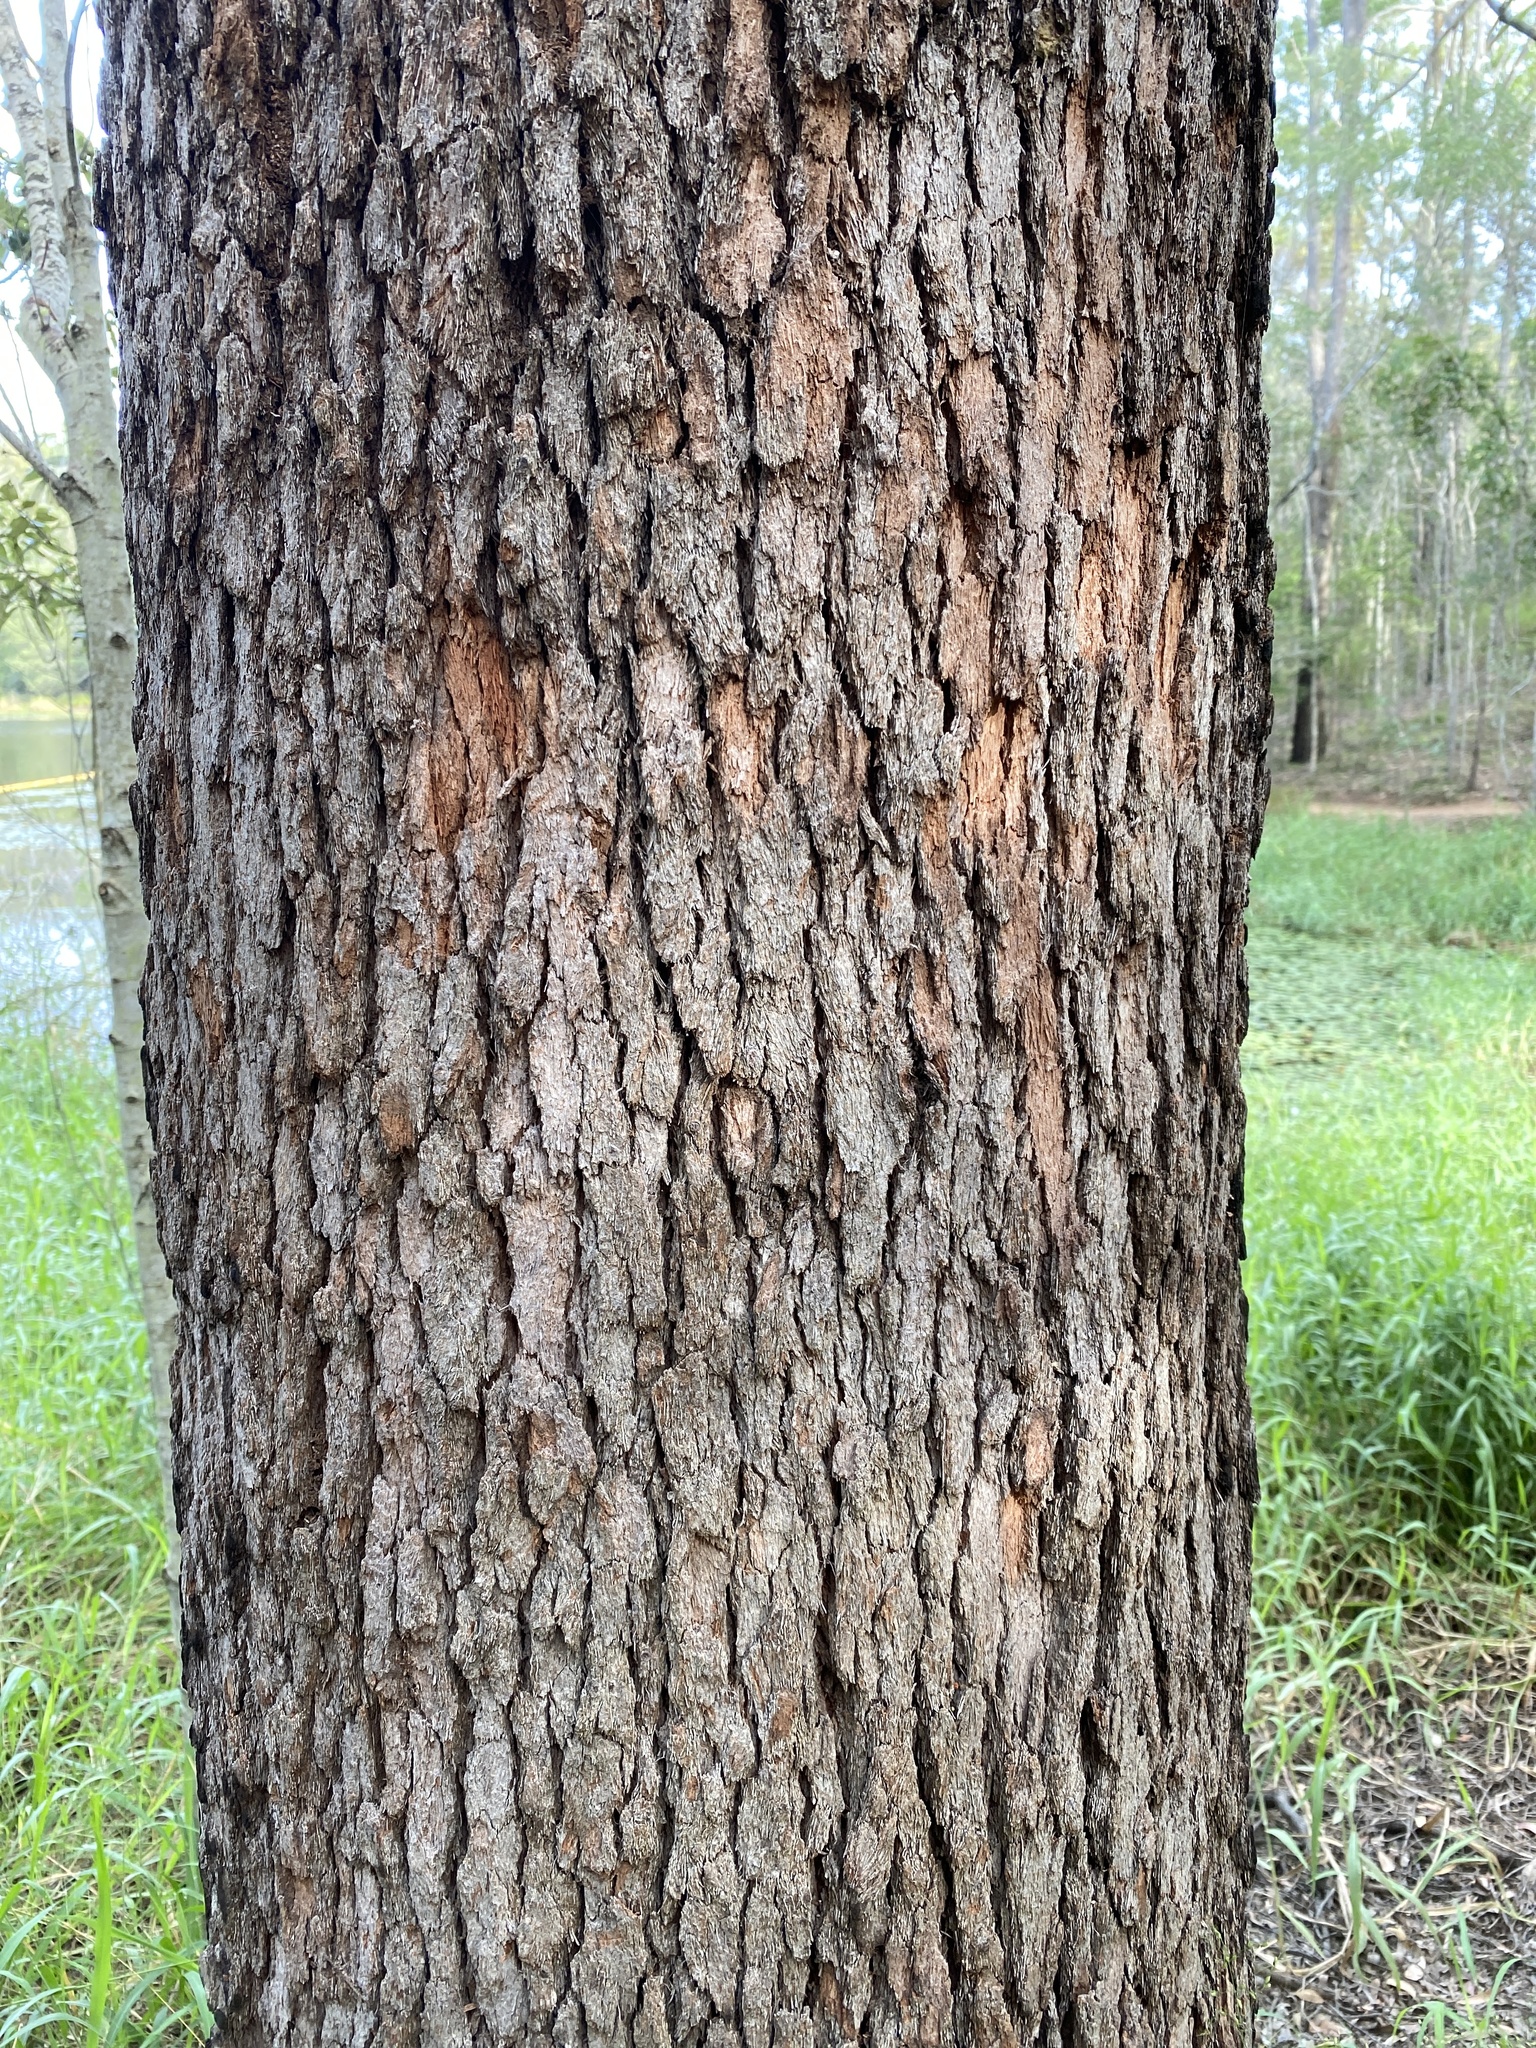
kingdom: Plantae
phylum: Tracheophyta
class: Magnoliopsida
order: Myrtales
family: Myrtaceae
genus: Corymbia
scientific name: Corymbia intermedia
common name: Pink-bloodwood
